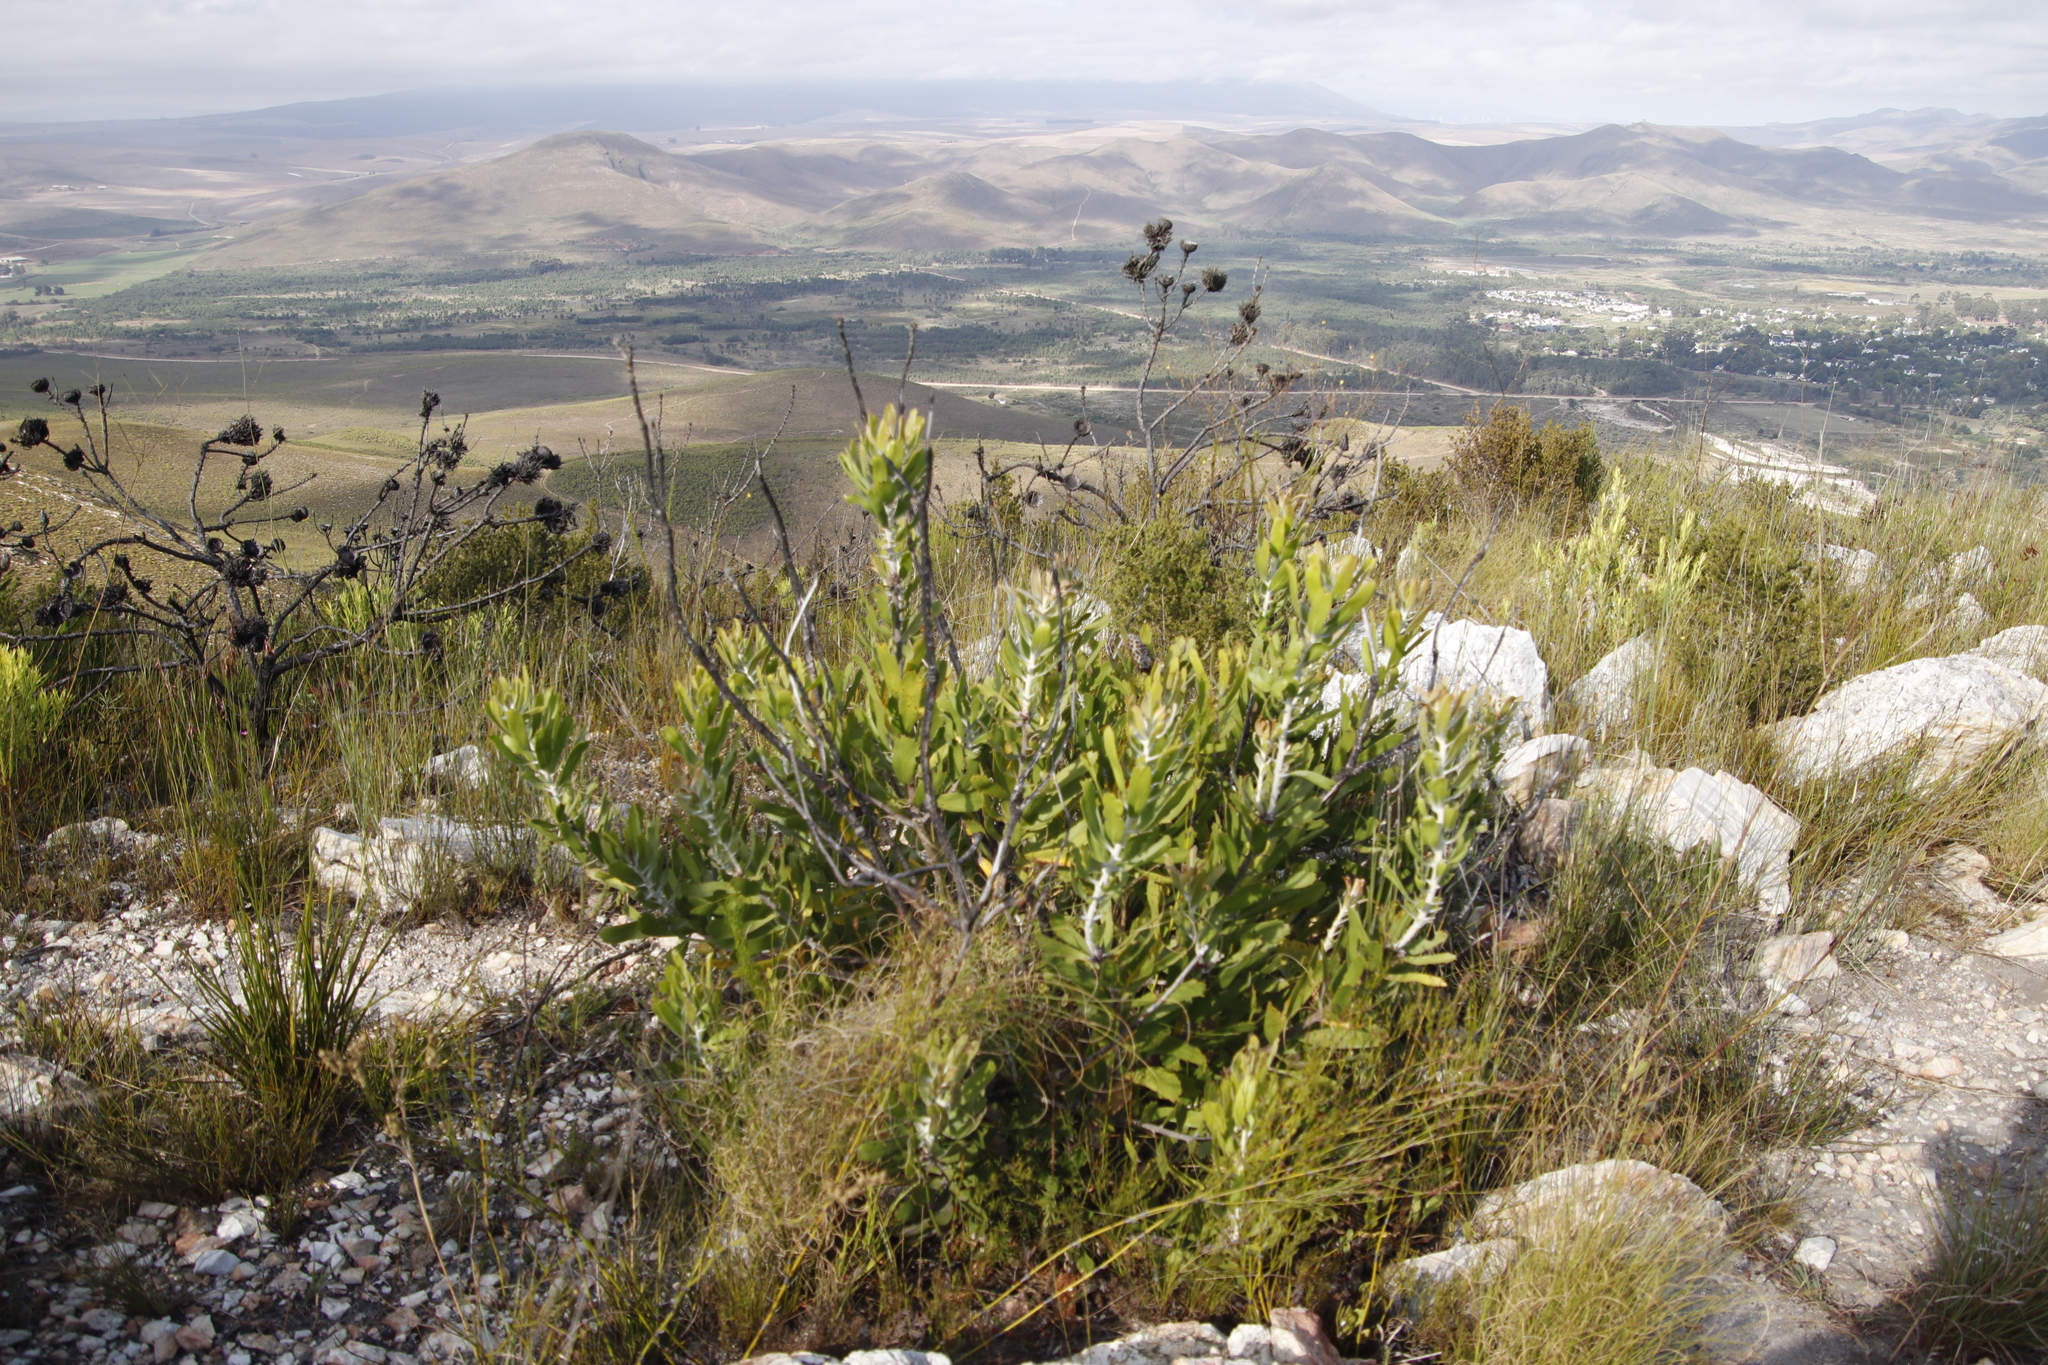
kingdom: Plantae
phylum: Tracheophyta
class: Magnoliopsida
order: Proteales
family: Proteaceae
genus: Leucospermum
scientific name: Leucospermum cuneiforme
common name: Common pincushion
